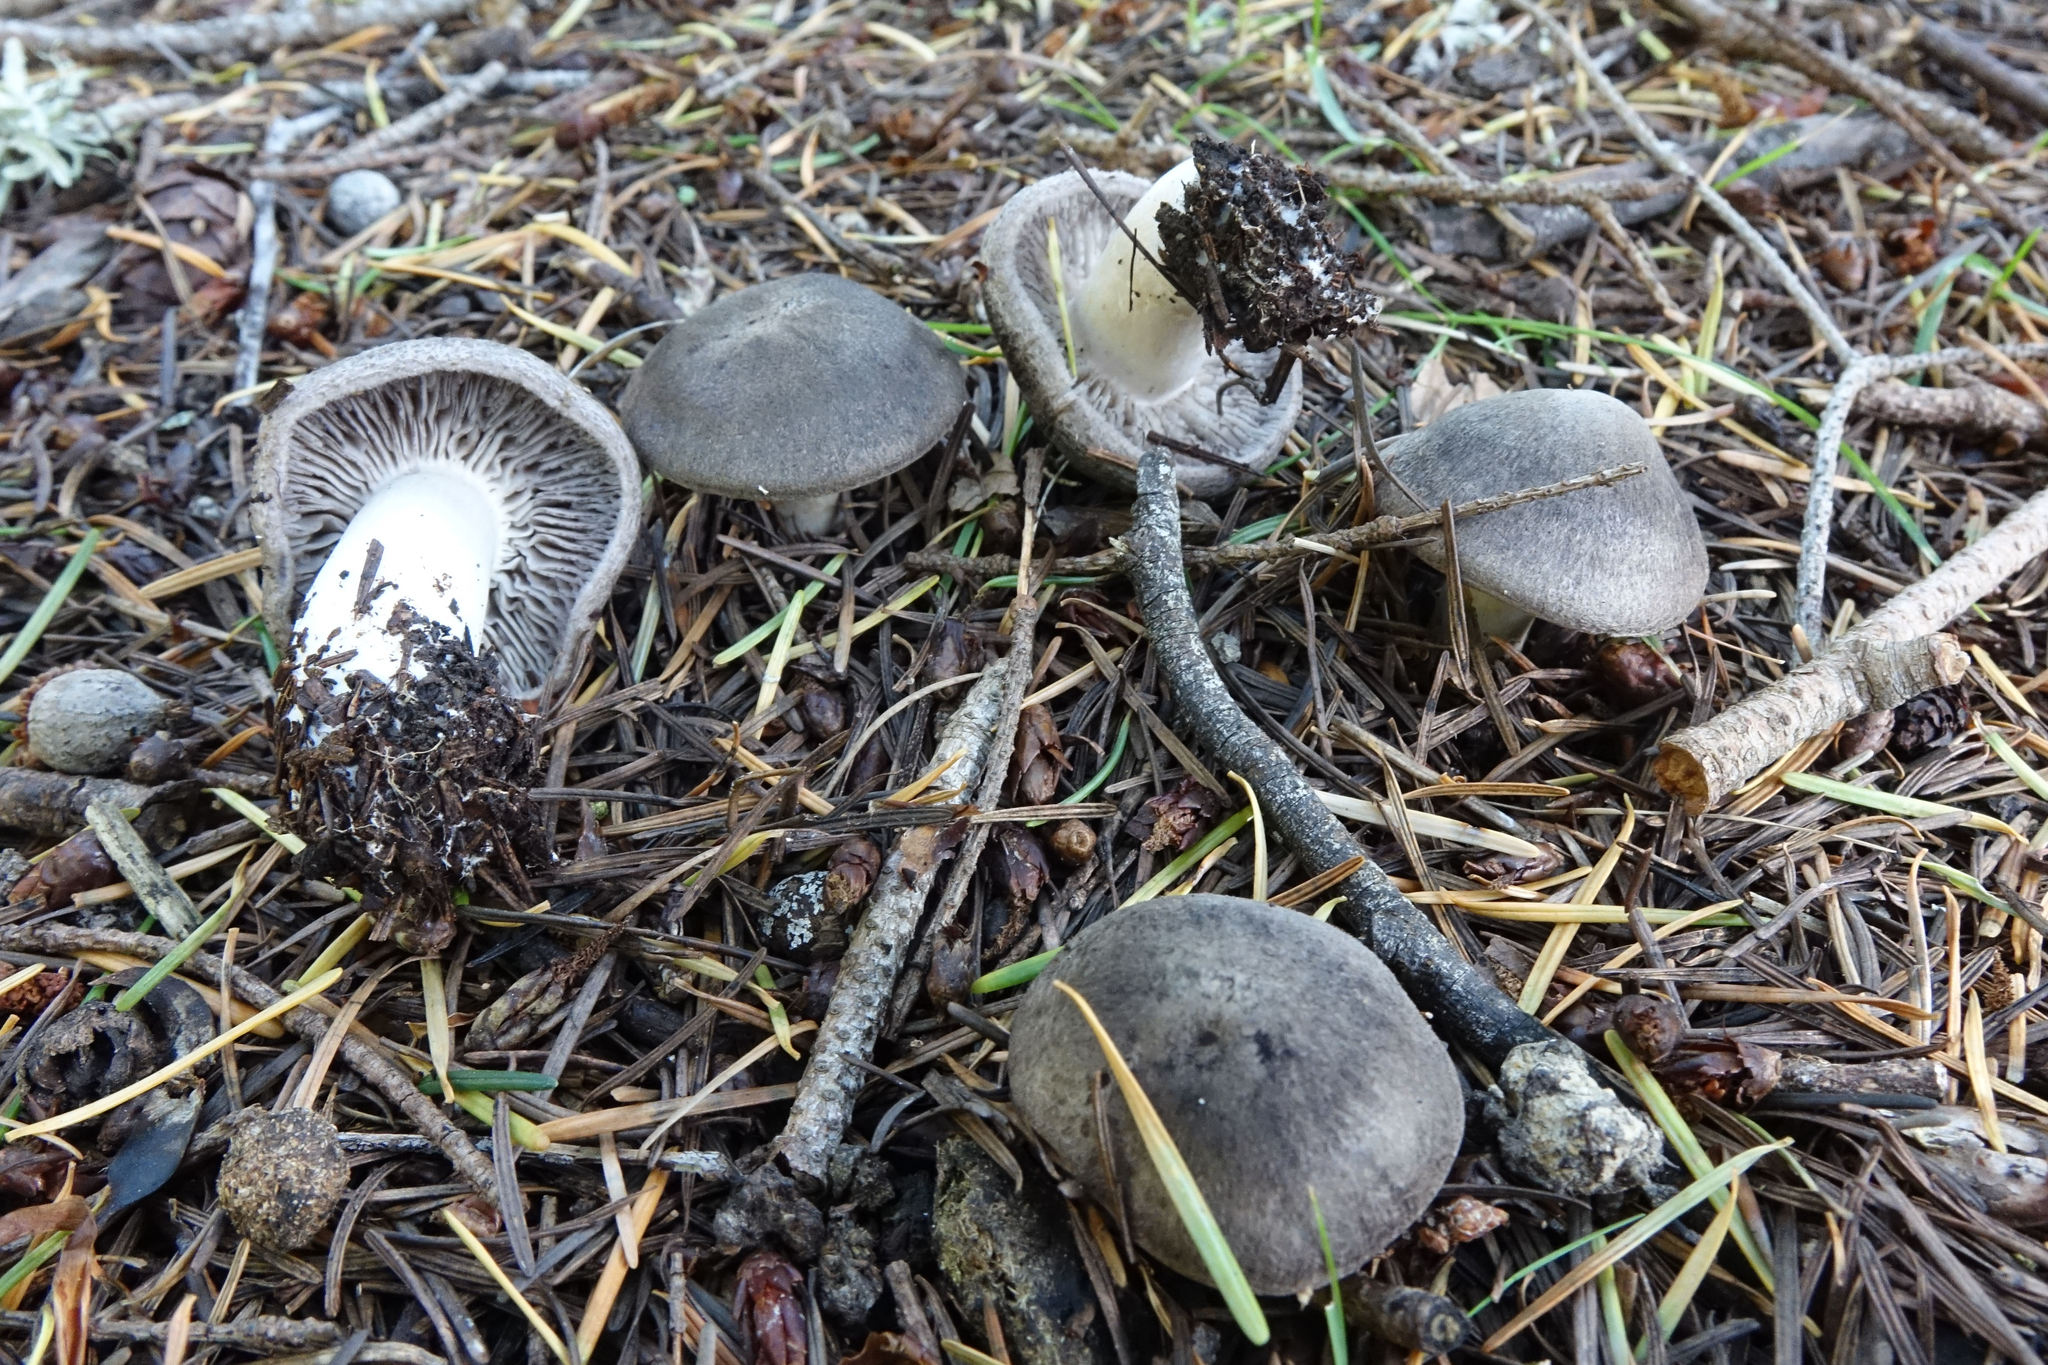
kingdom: Fungi
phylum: Basidiomycota
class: Agaricomycetes
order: Agaricales
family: Tricholomataceae
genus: Tricholoma
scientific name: Tricholoma terreum
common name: Grey knight
